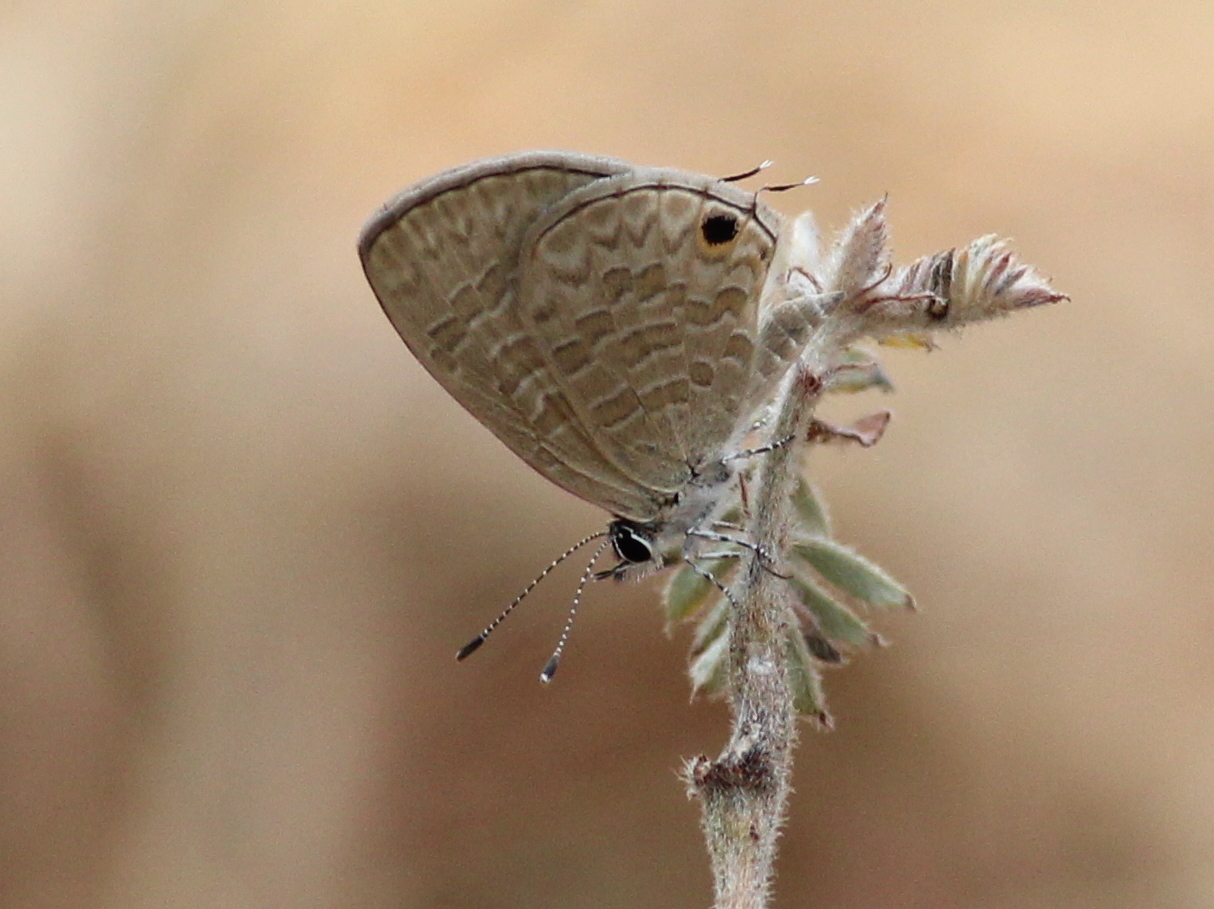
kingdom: Animalia
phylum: Arthropoda
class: Insecta
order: Lepidoptera
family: Lycaenidae
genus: Prosotas
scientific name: Prosotas nora
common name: Common line blue
